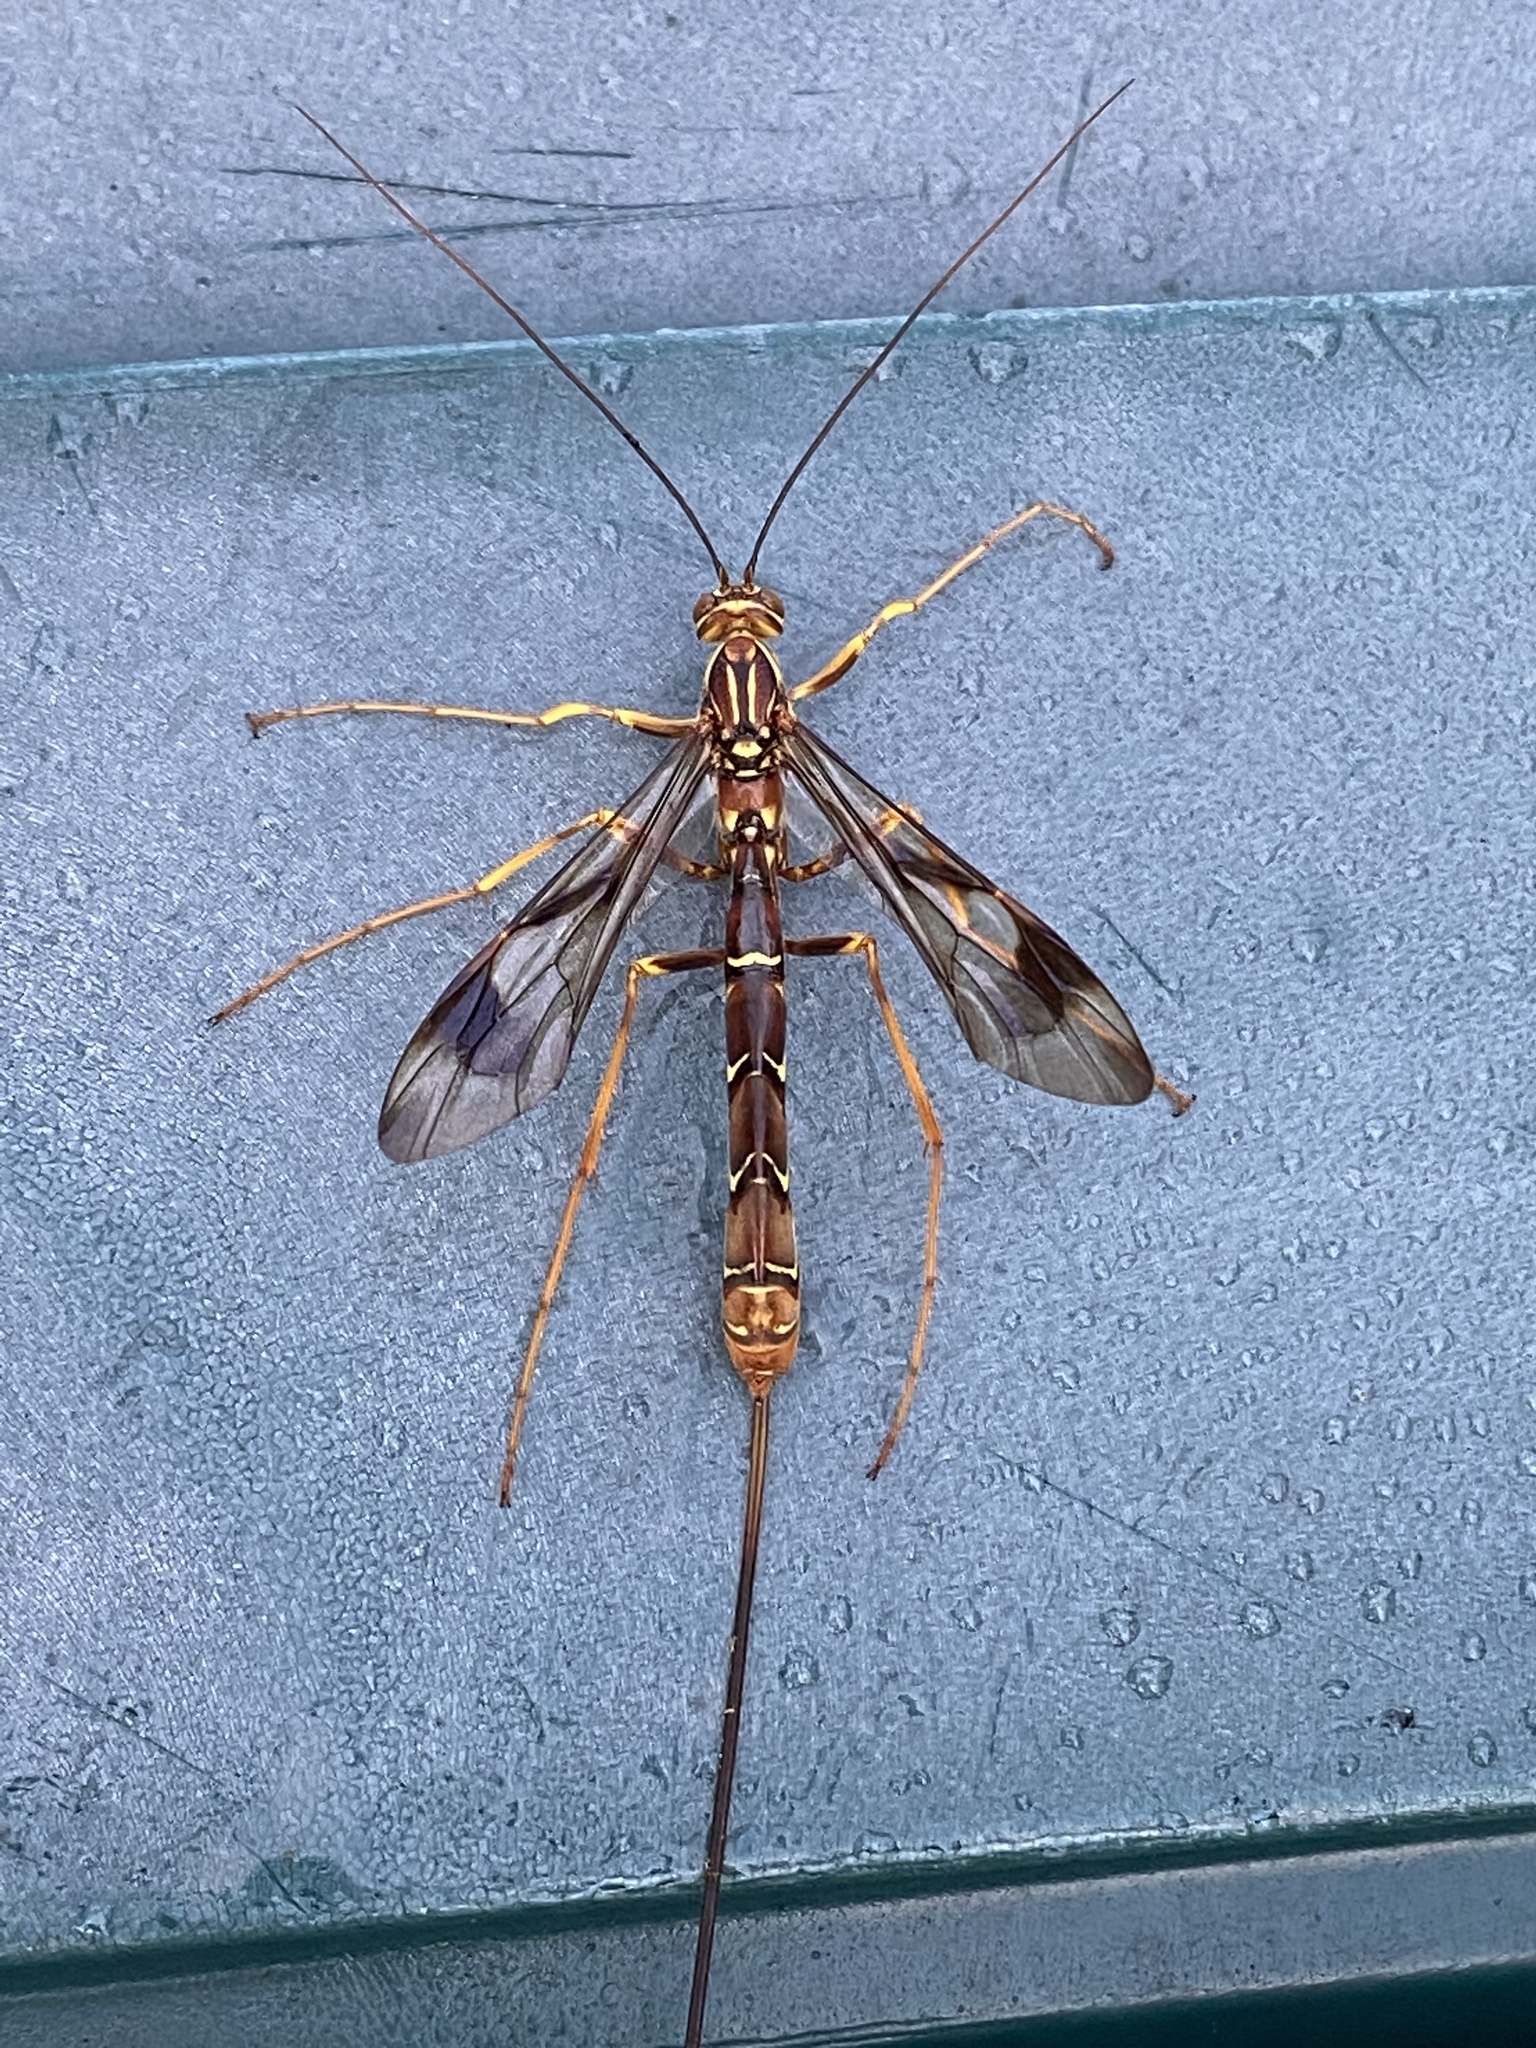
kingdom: Animalia
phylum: Arthropoda
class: Insecta
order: Hymenoptera
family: Ichneumonidae
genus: Megarhyssa
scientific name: Megarhyssa macrura
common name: Long-tailed giant ichneumonid wasp
